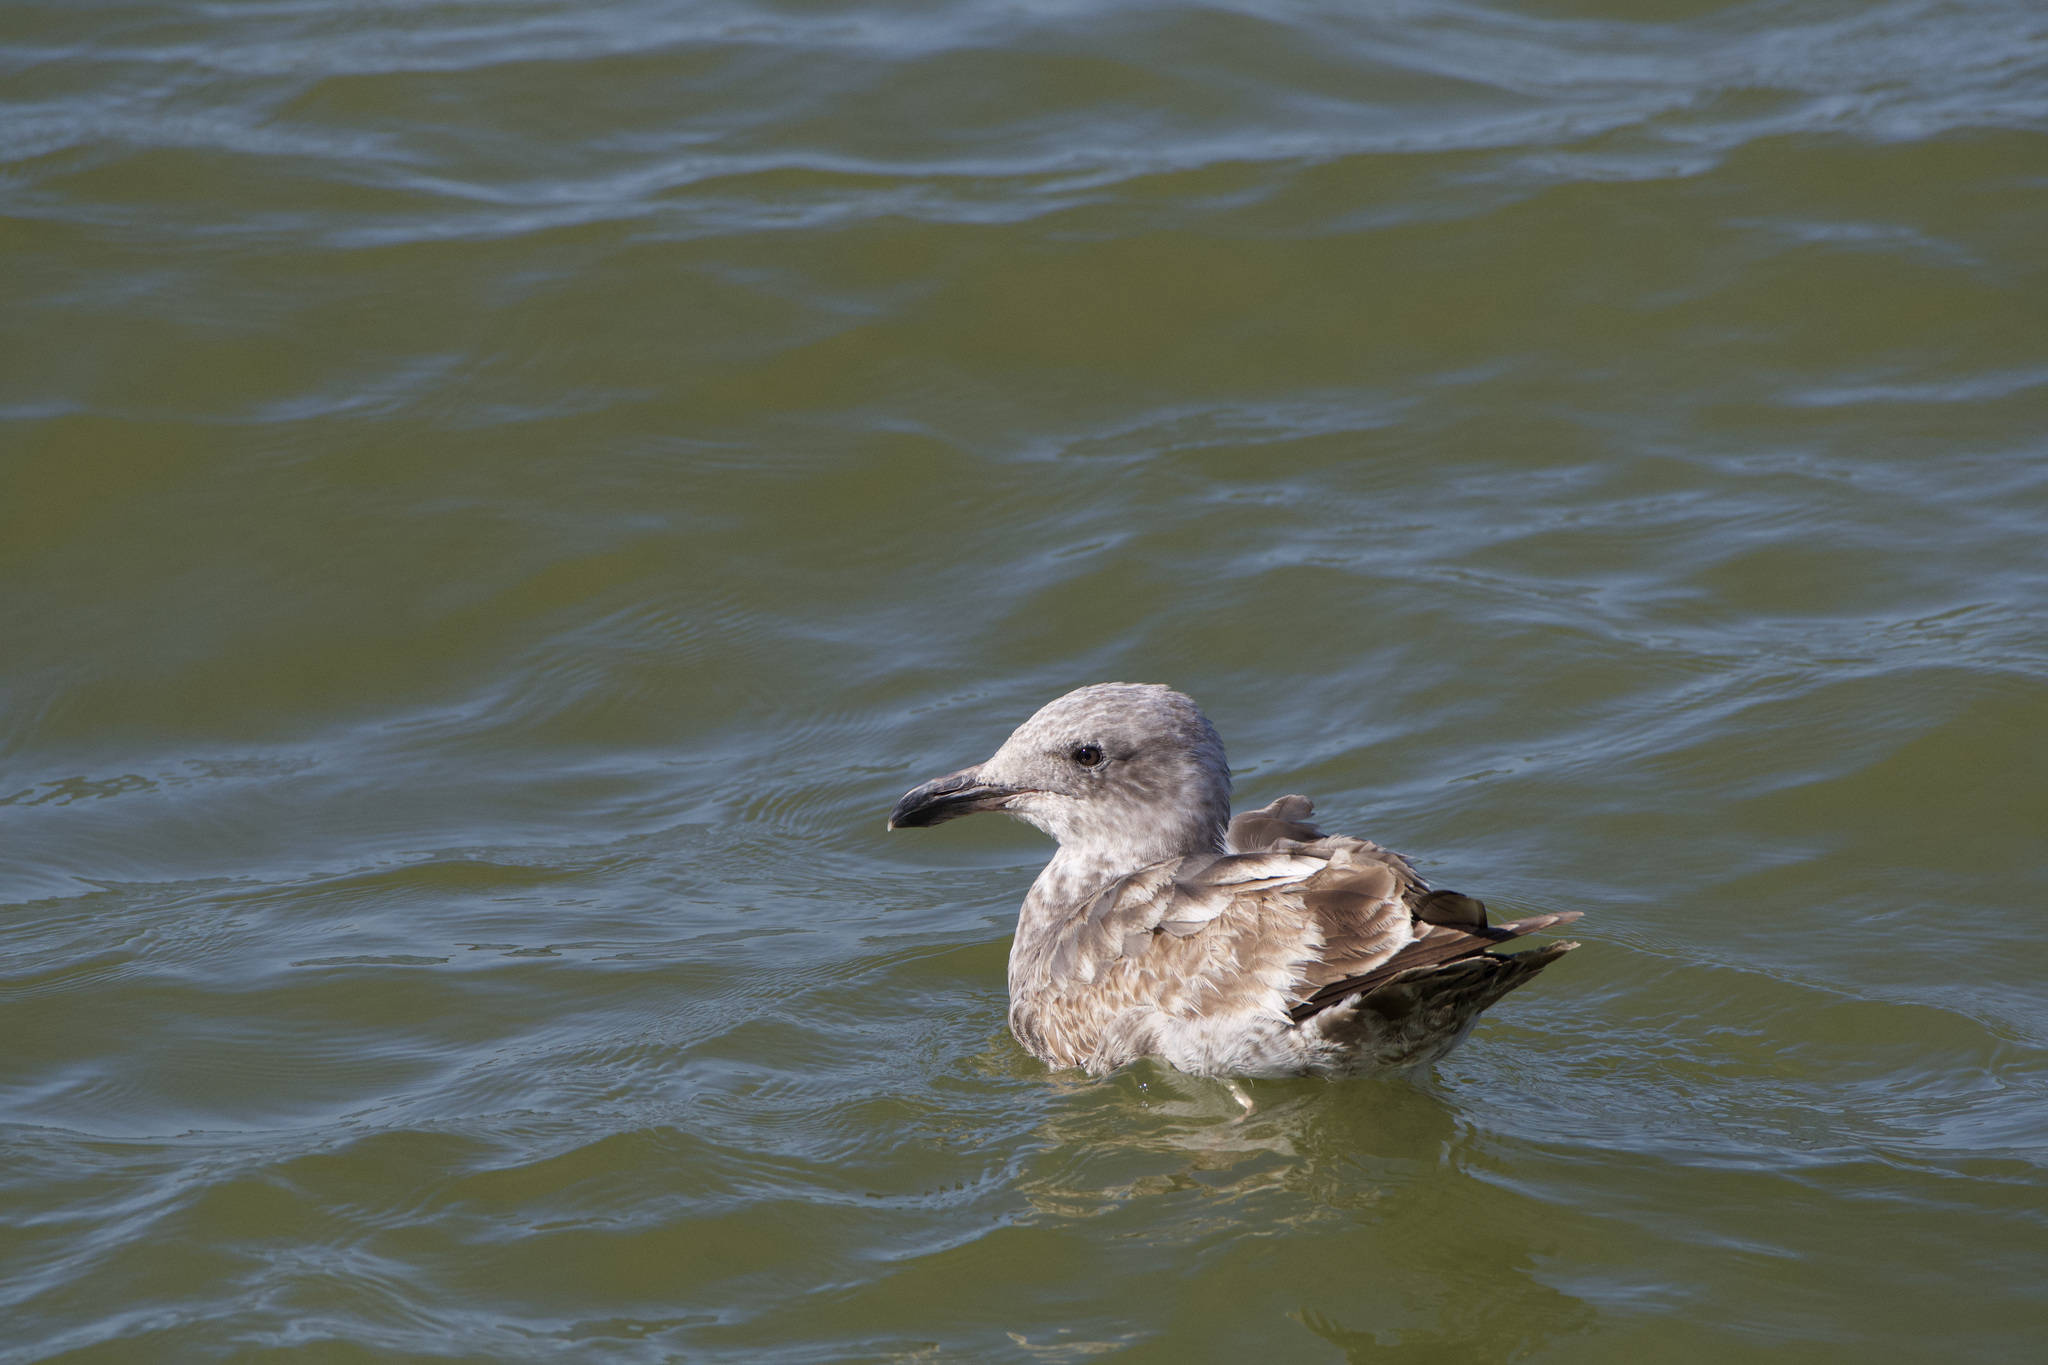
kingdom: Animalia
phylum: Chordata
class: Aves
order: Charadriiformes
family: Laridae
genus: Larus
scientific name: Larus occidentalis
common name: Western gull
